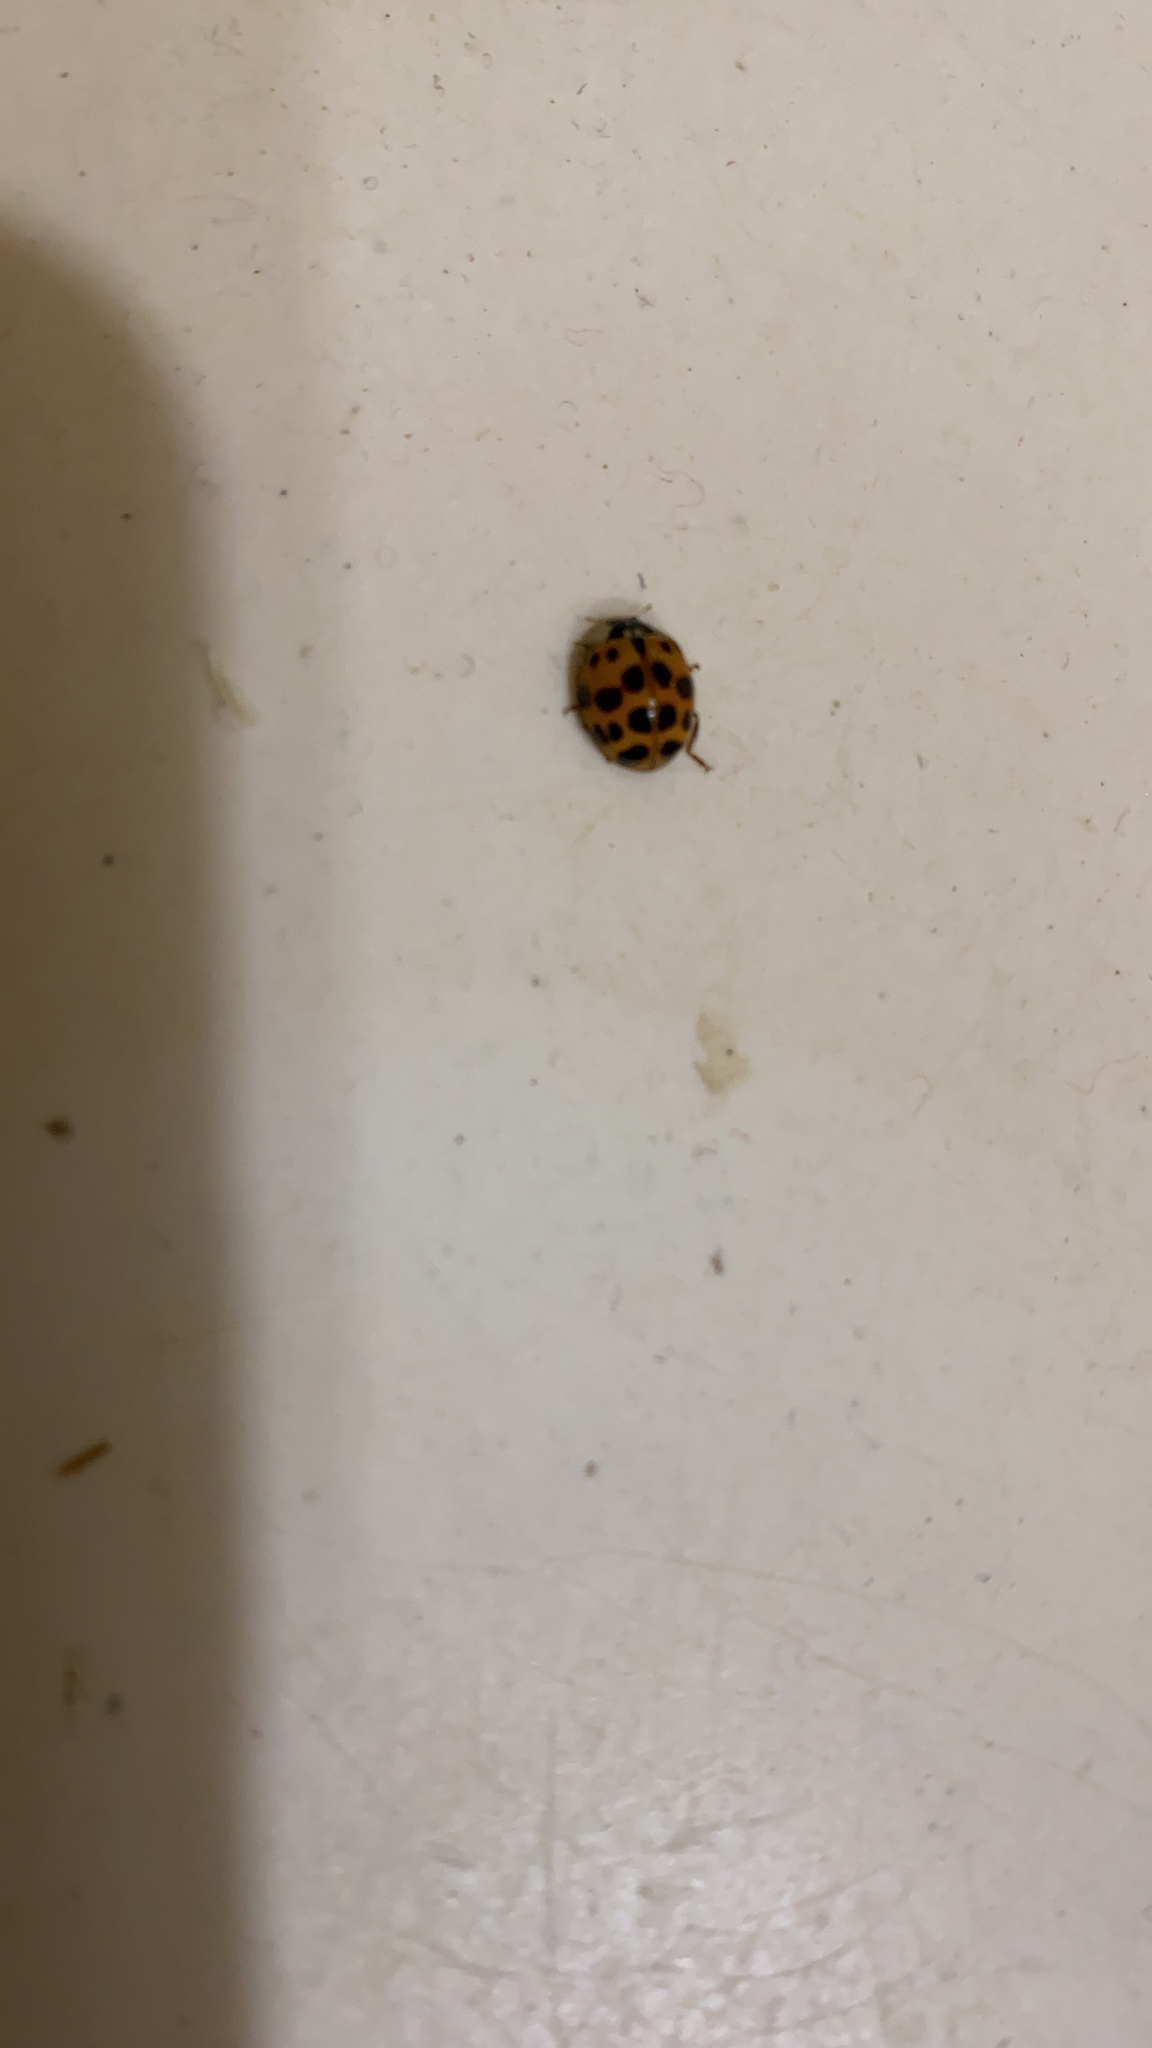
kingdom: Animalia
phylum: Arthropoda
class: Insecta
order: Coleoptera
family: Coccinellidae
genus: Harmonia
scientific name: Harmonia axyridis
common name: Harlequin ladybird
